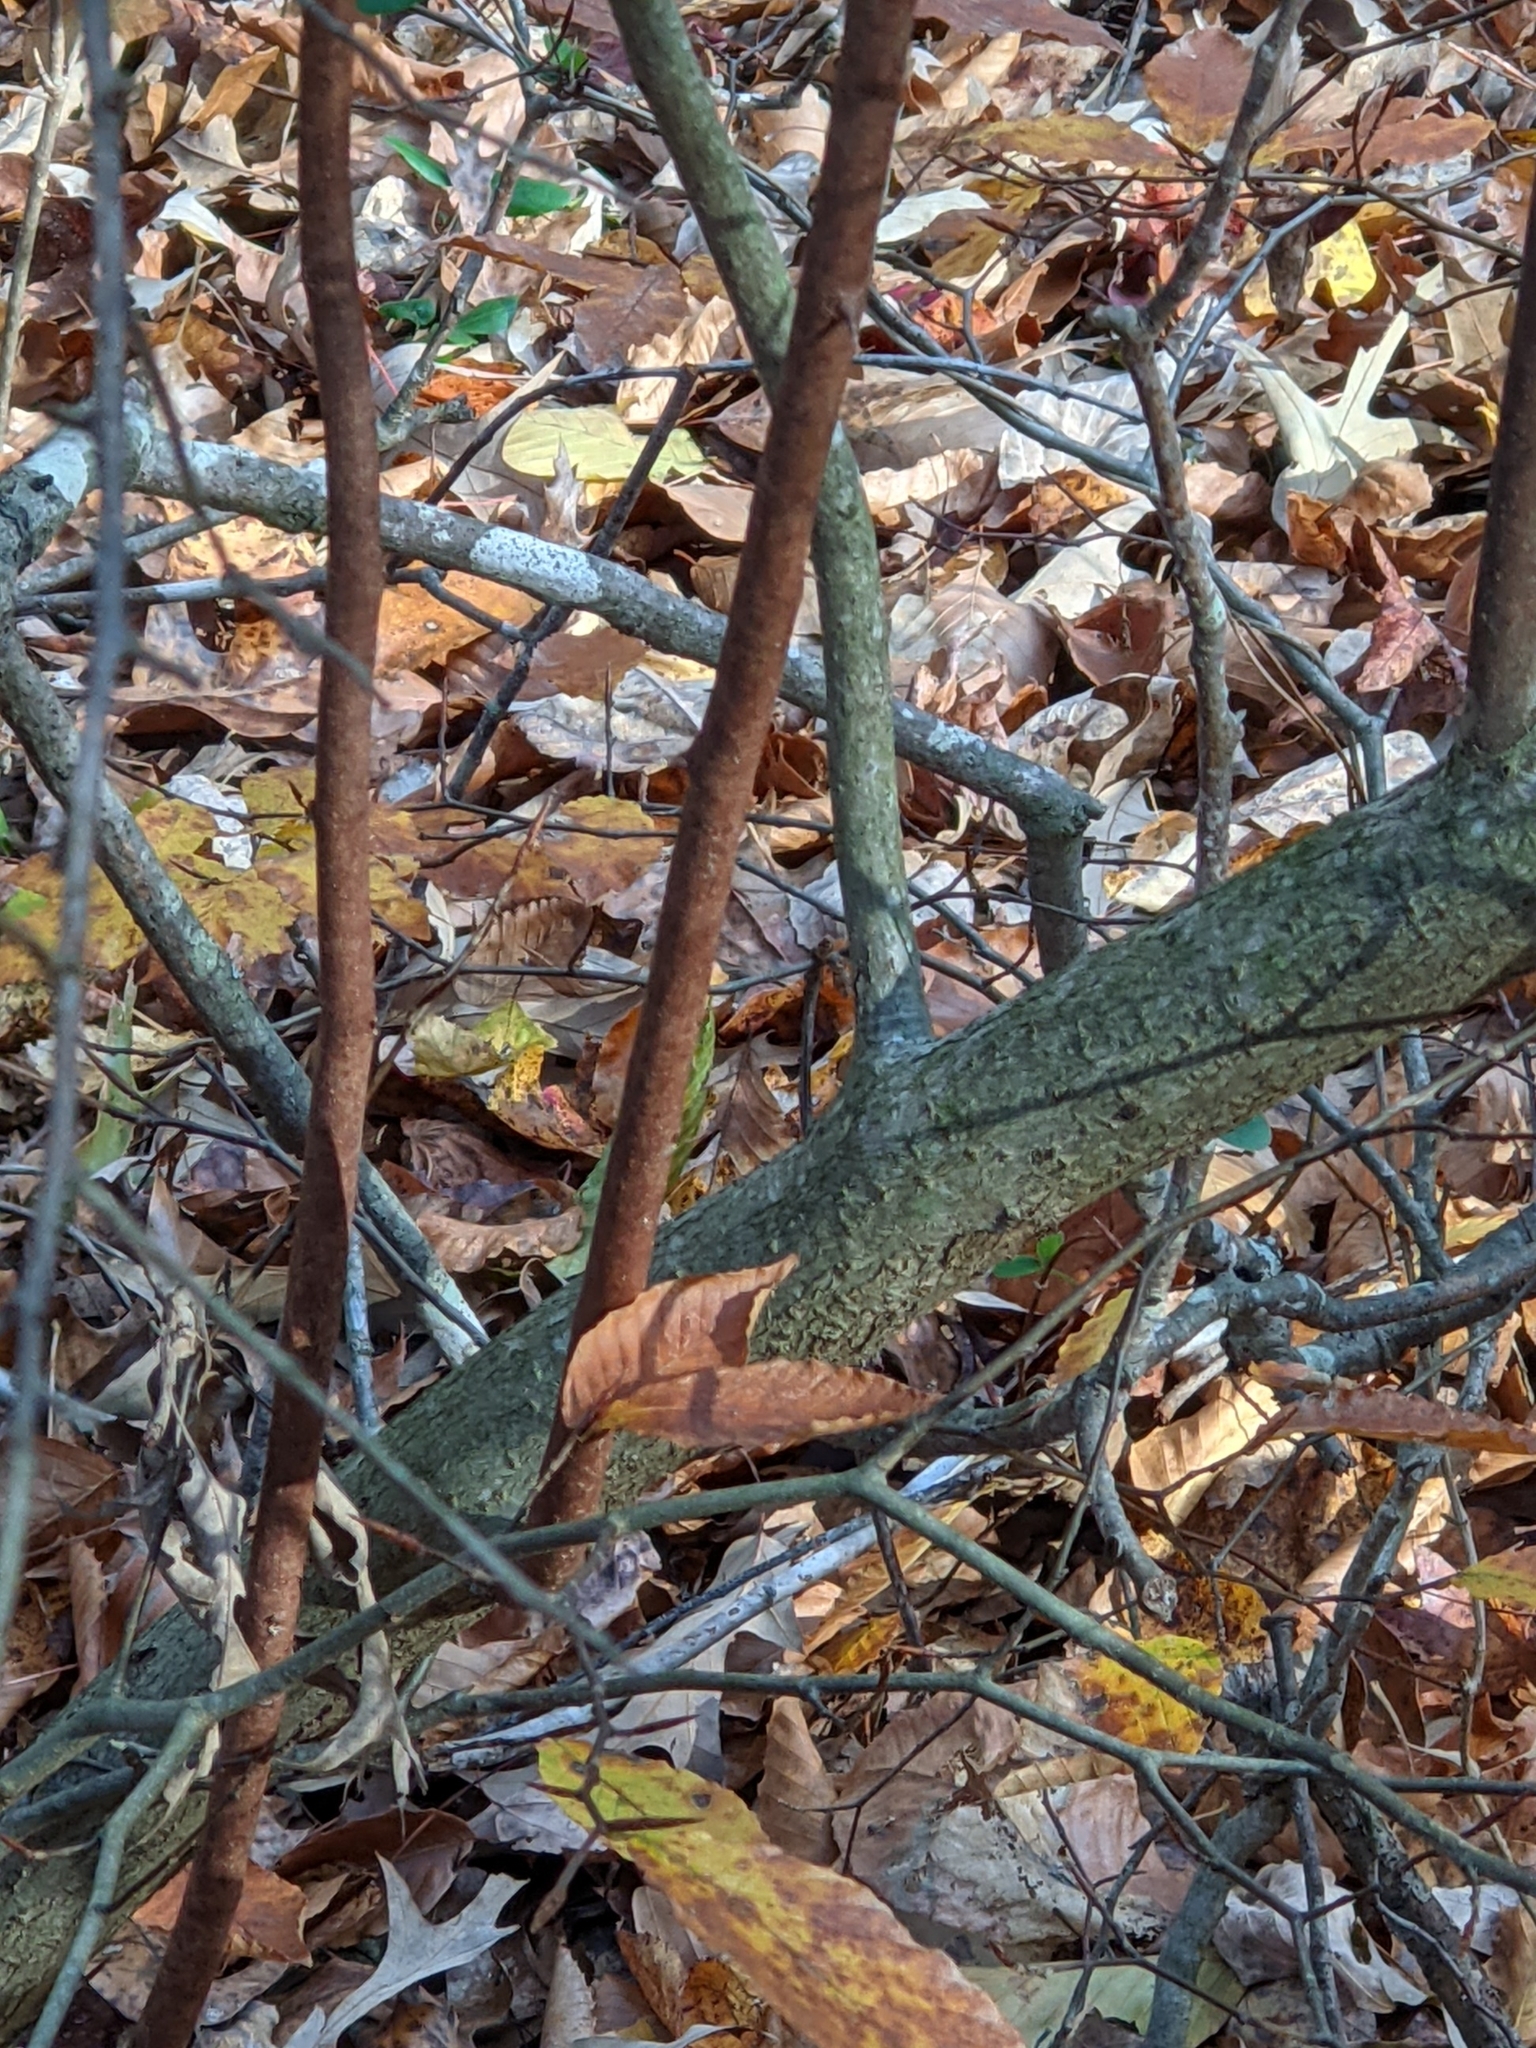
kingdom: Plantae
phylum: Tracheophyta
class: Magnoliopsida
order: Rosales
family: Elaeagnaceae
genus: Elaeagnus
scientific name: Elaeagnus umbellata
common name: Autumn olive
